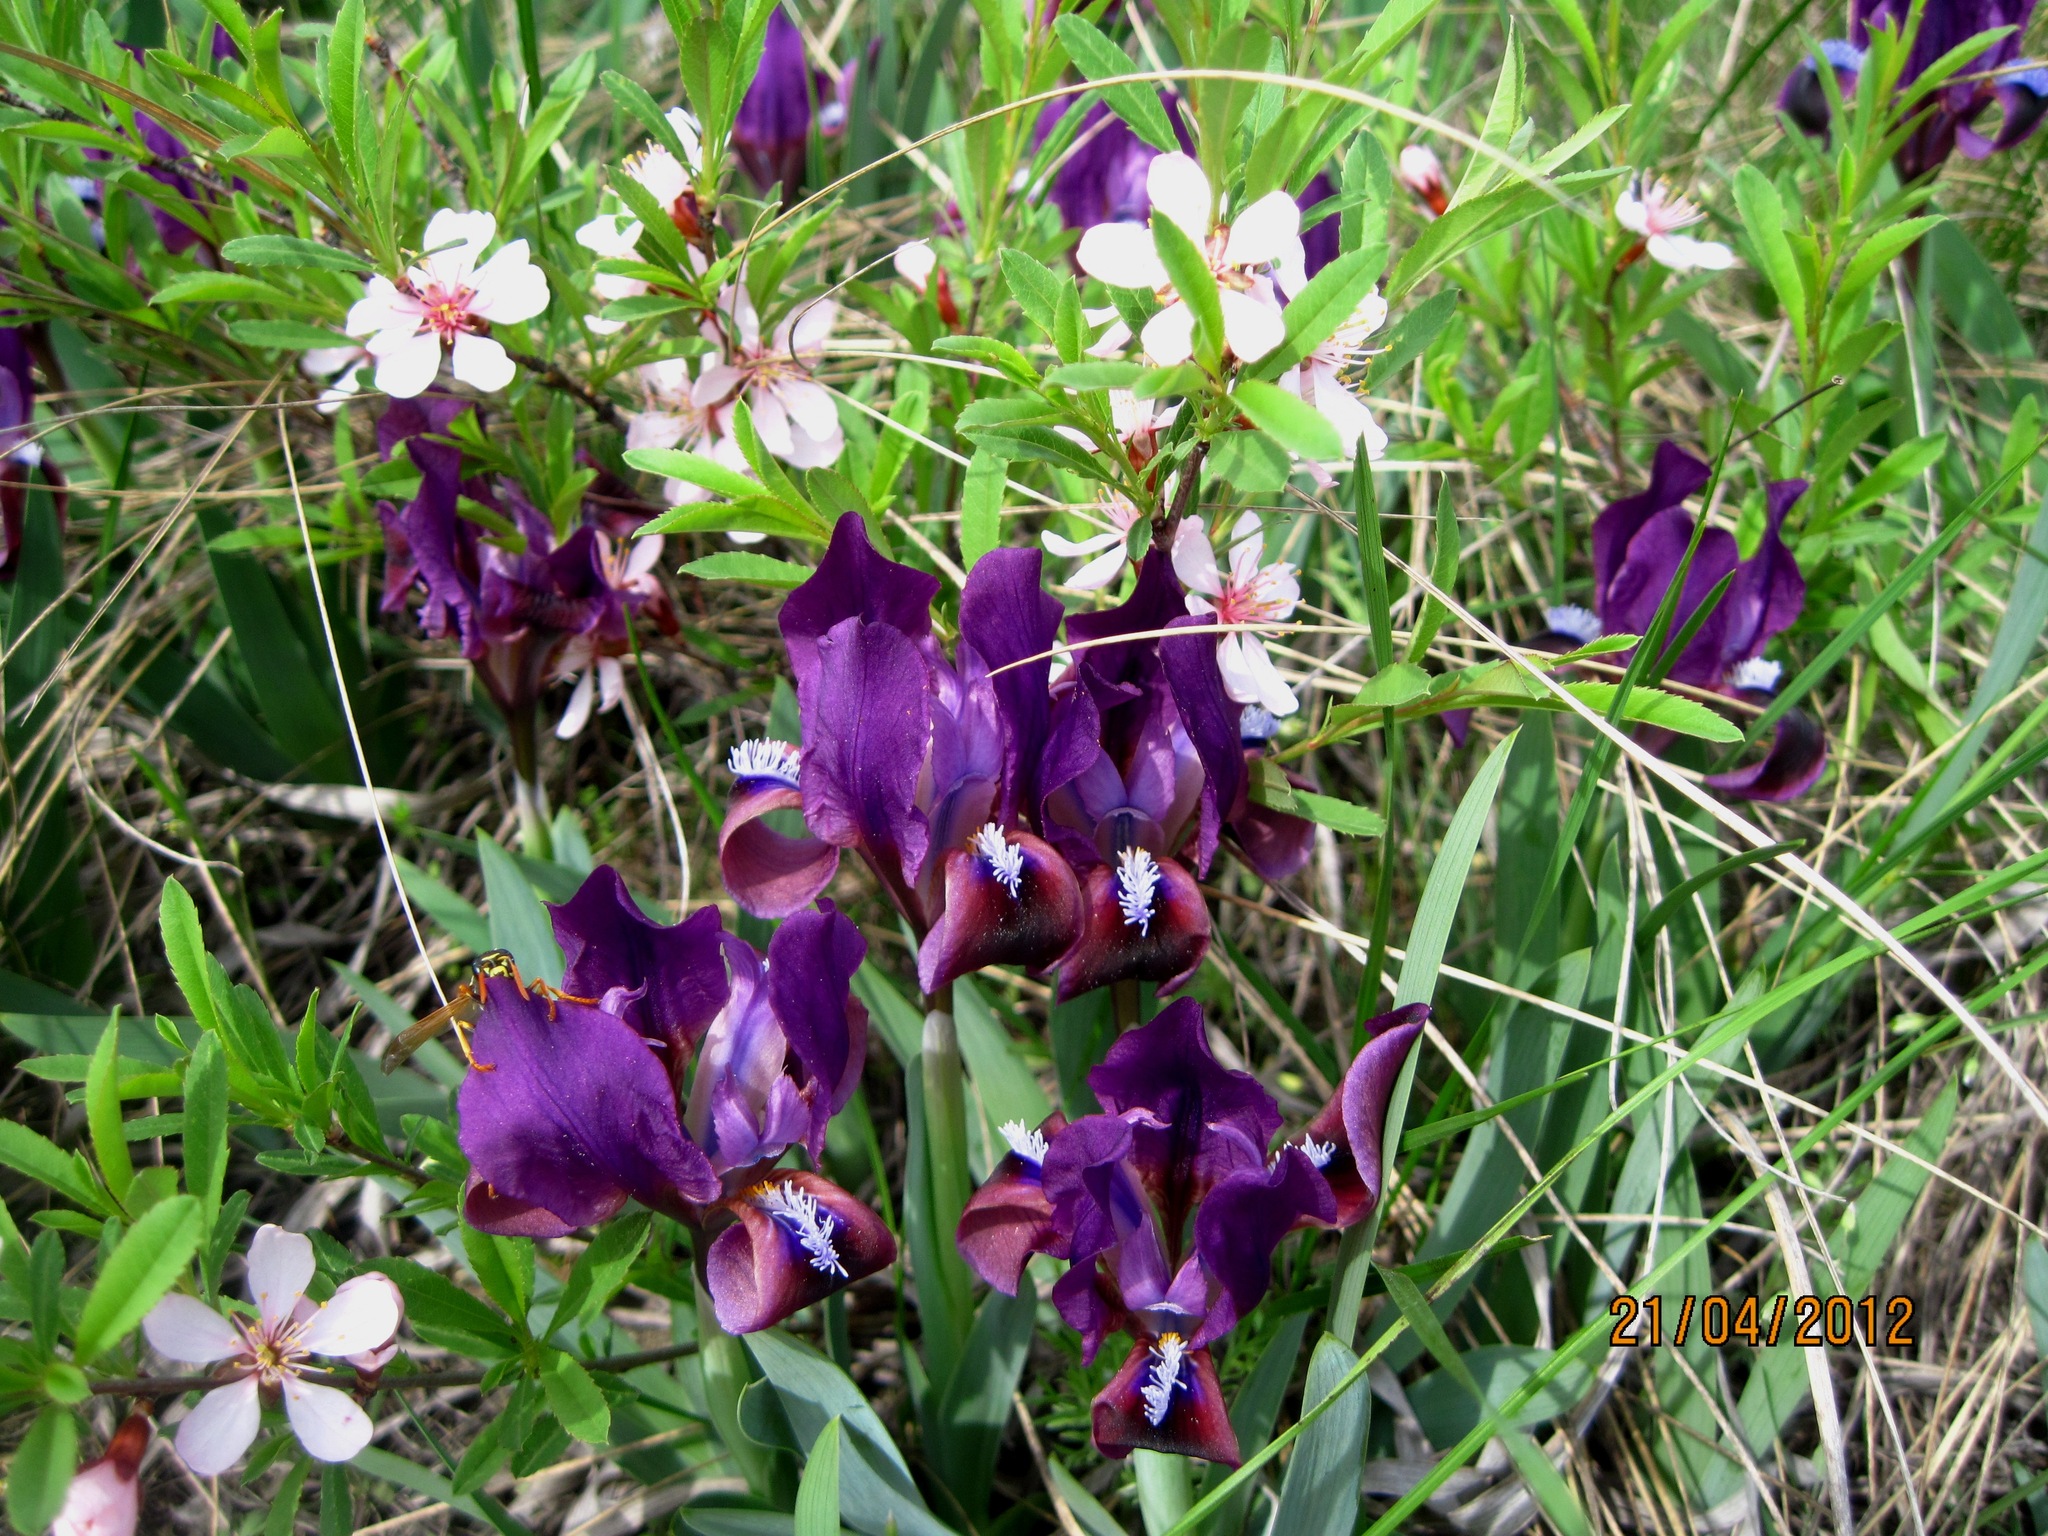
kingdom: Plantae
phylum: Tracheophyta
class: Magnoliopsida
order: Rosales
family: Rosaceae
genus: Prunus
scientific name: Prunus tenella
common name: Dwarf russian almond
